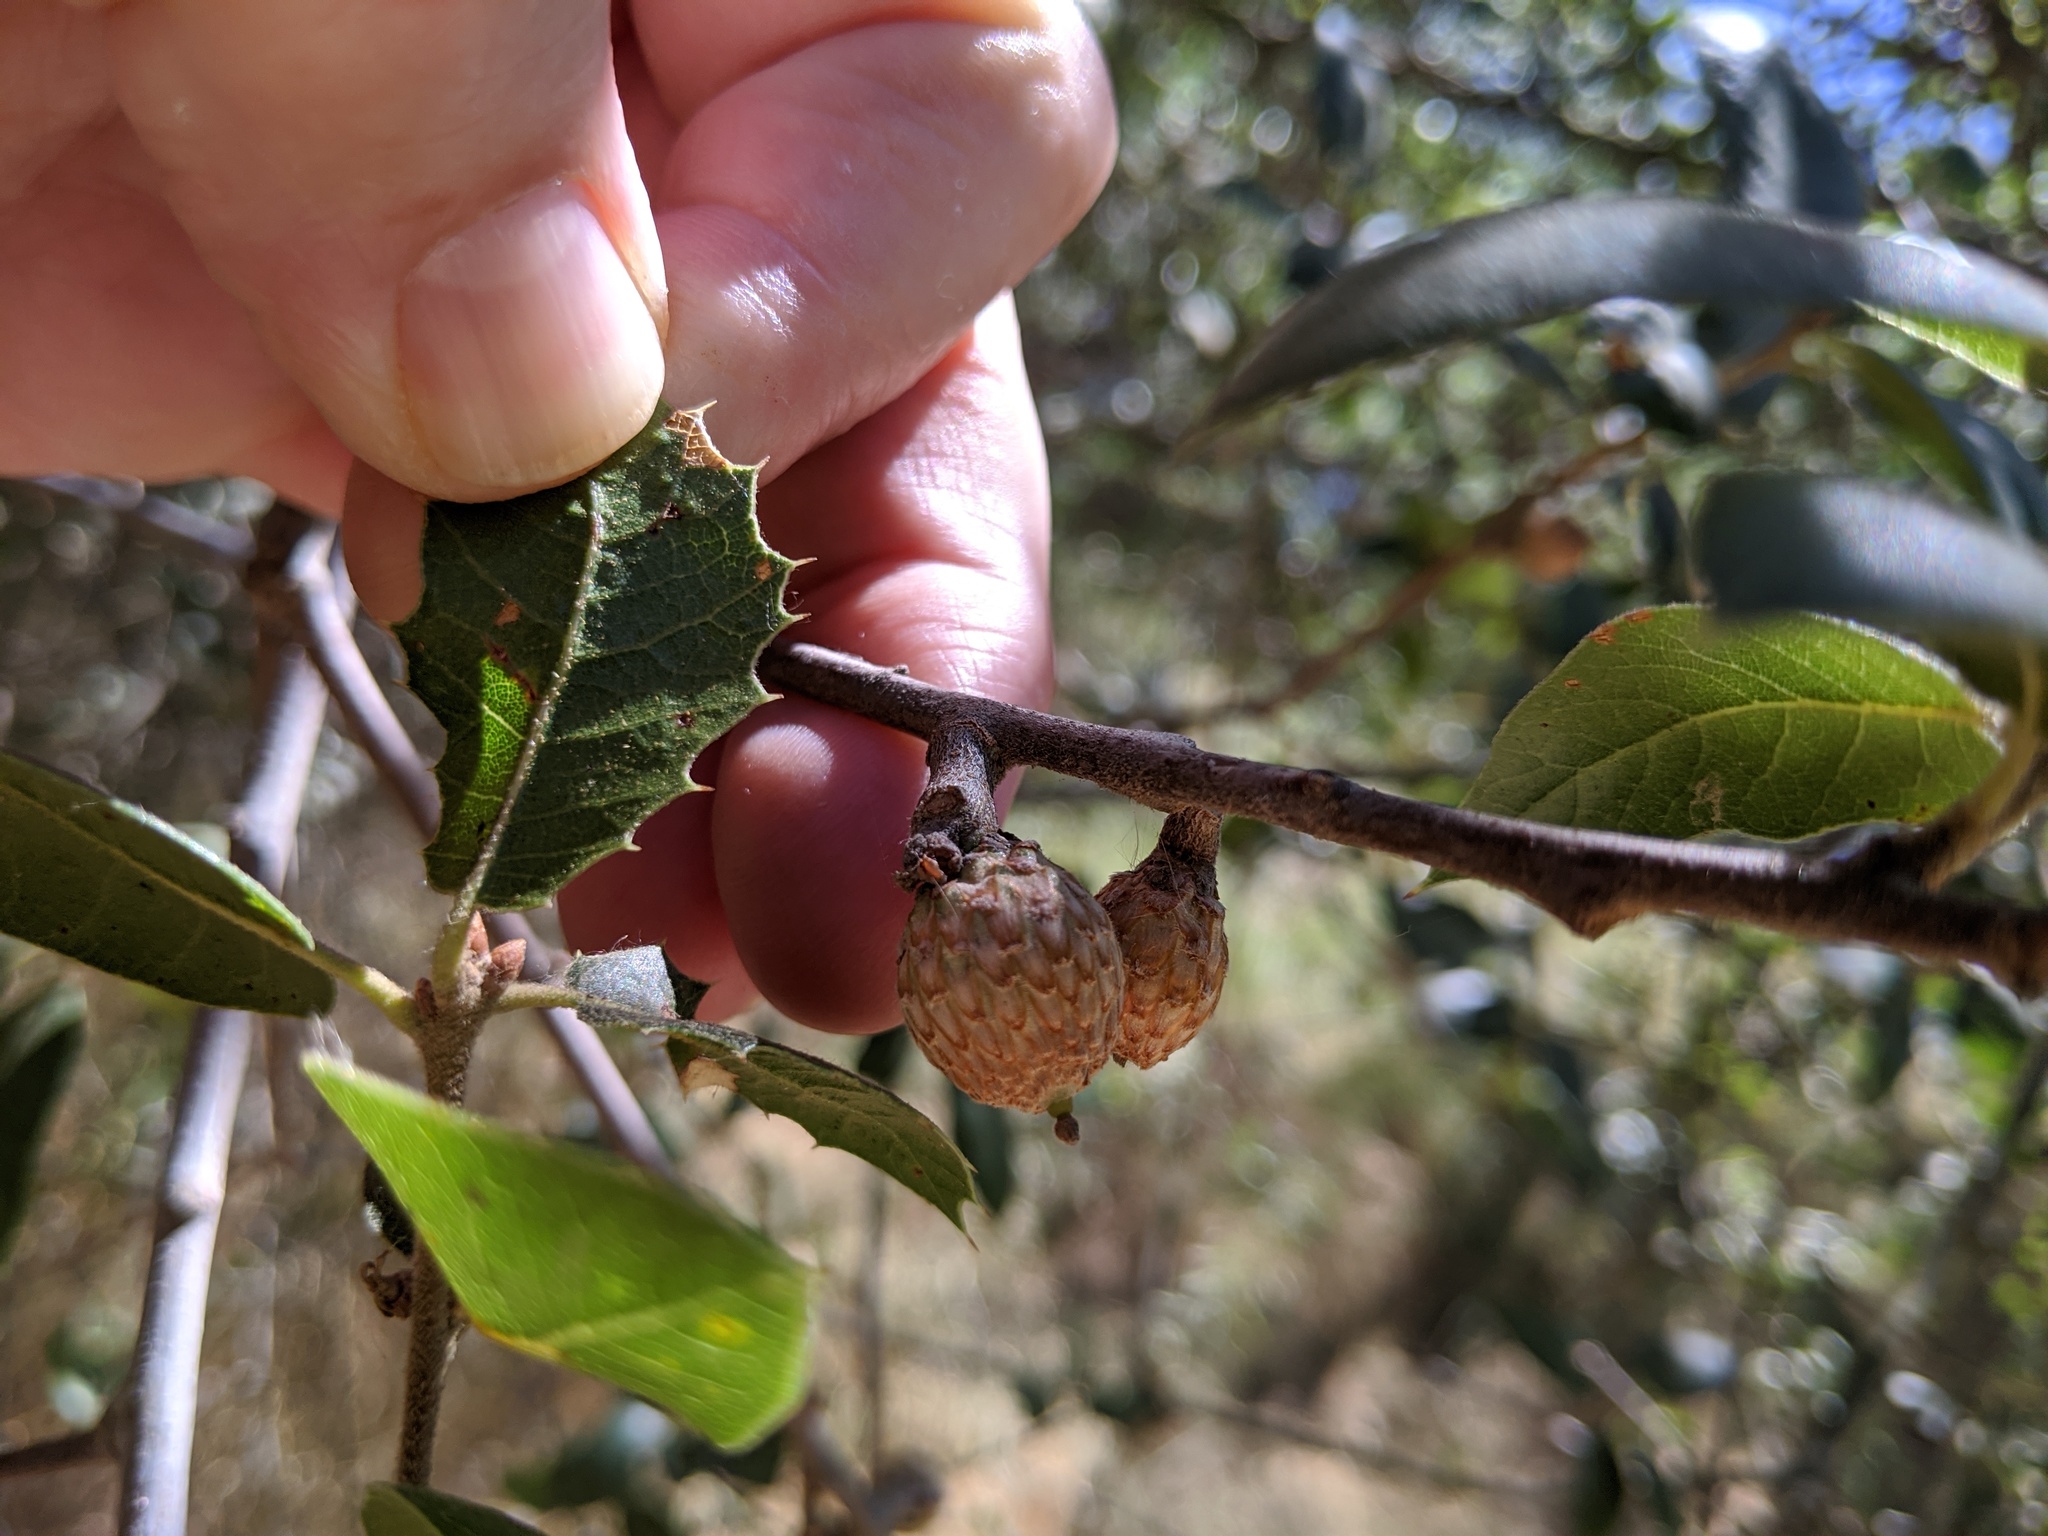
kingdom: Plantae
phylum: Tracheophyta
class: Magnoliopsida
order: Fagales
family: Fagaceae
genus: Quercus
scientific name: Quercus wislizeni
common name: Interior live oak
